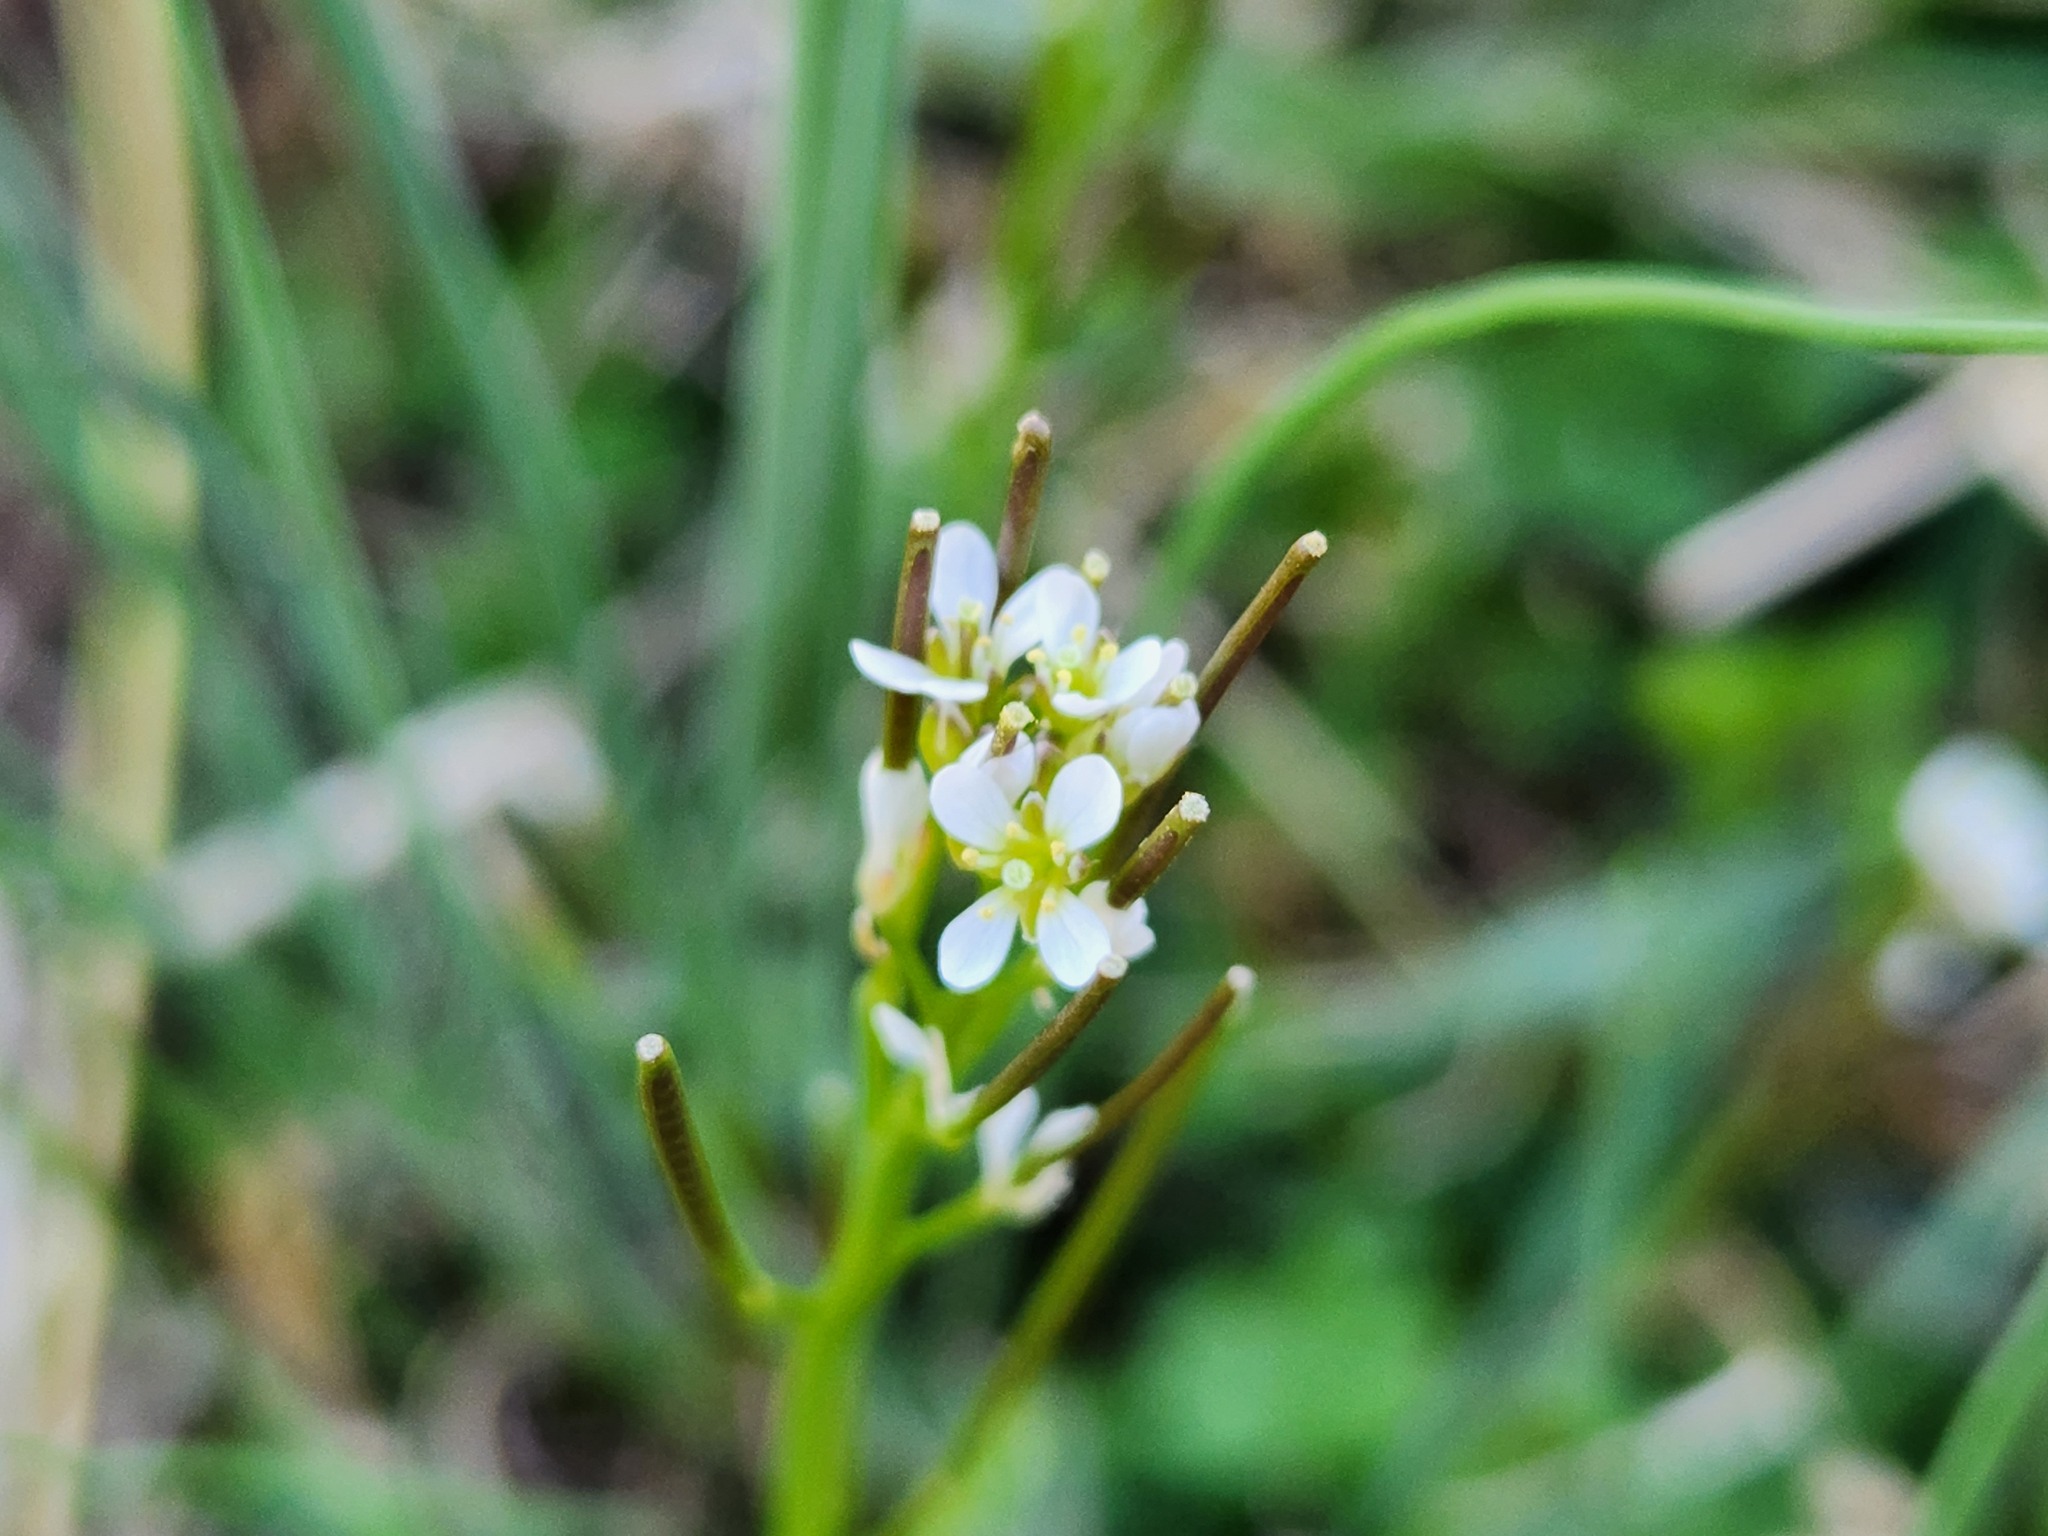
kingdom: Plantae
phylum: Tracheophyta
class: Magnoliopsida
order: Brassicales
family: Brassicaceae
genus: Cardamine
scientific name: Cardamine hirsuta
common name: Hairy bittercress
